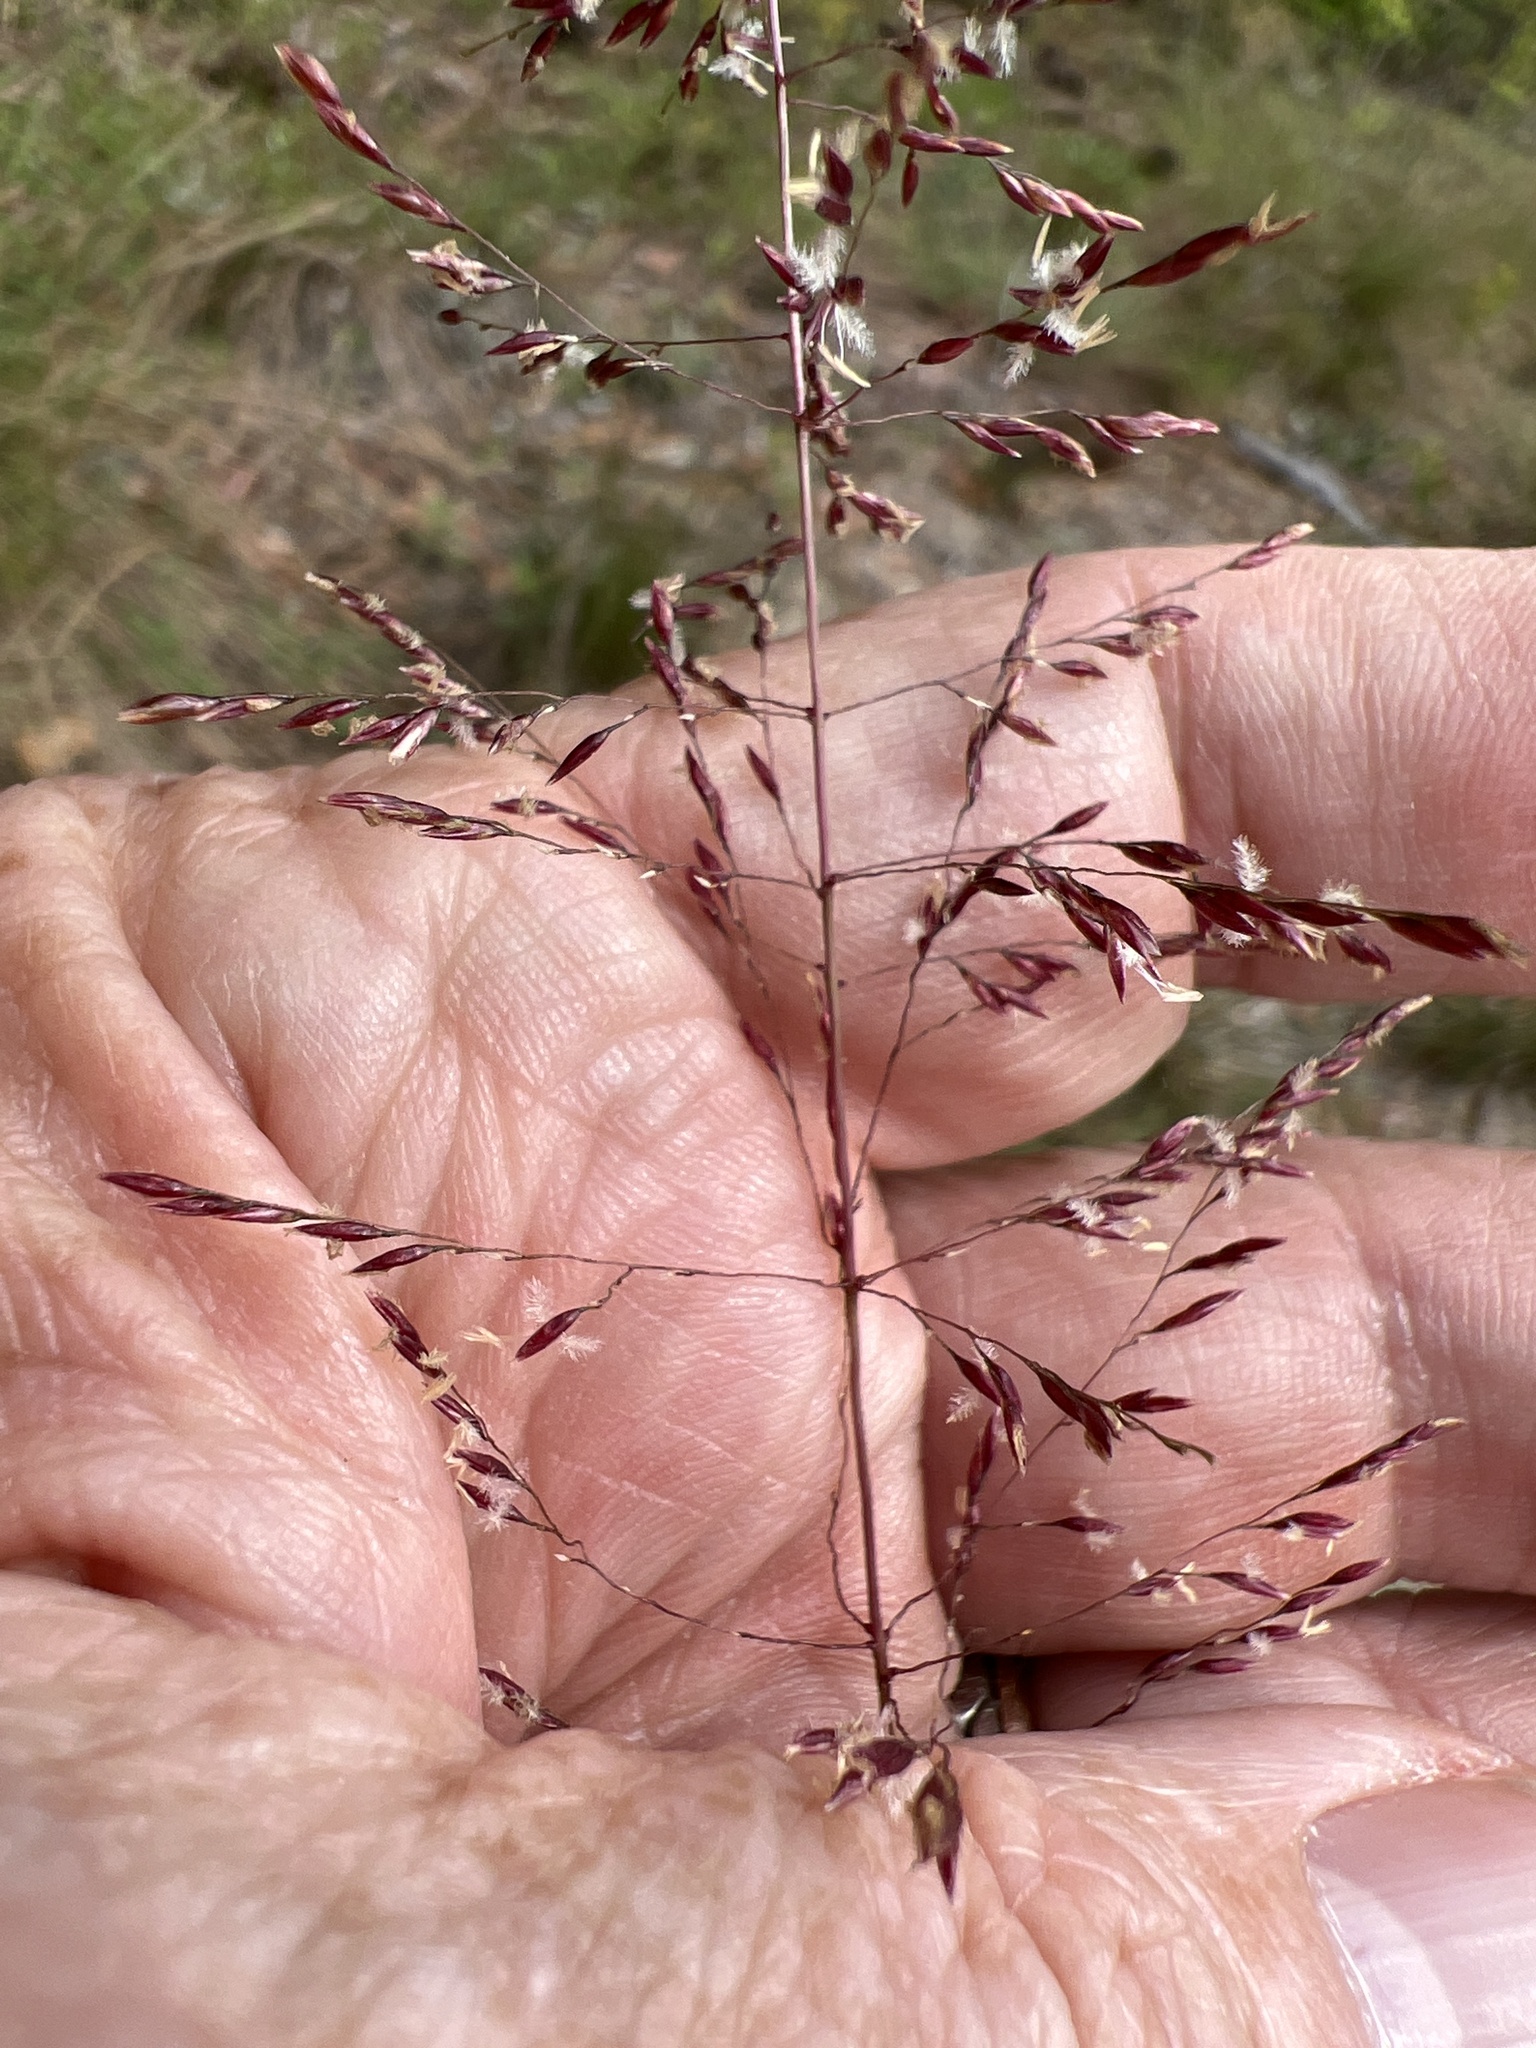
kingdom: Plantae
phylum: Tracheophyta
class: Liliopsida
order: Poales
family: Poaceae
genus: Sporobolus
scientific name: Sporobolus junceus
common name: Lizard grass
